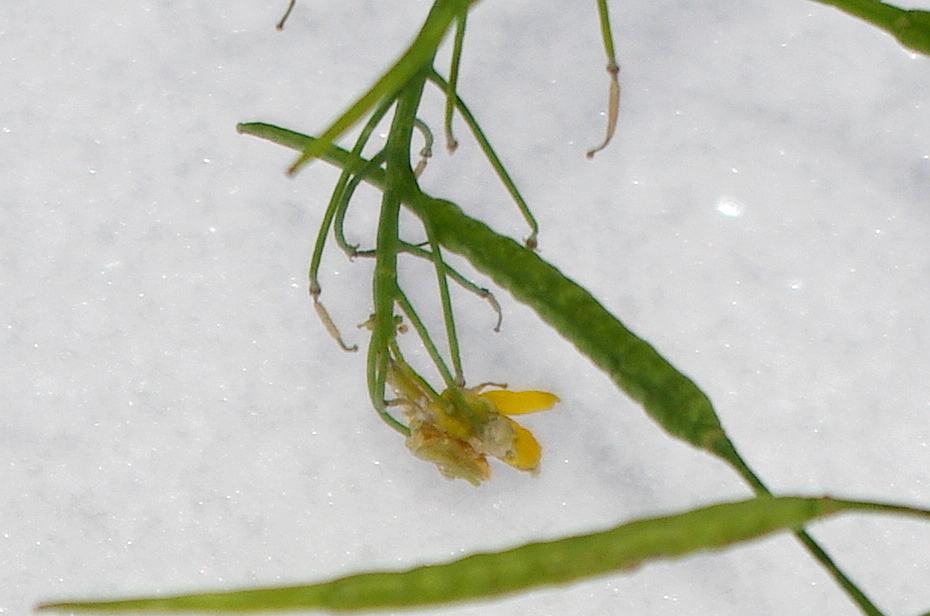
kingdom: Plantae
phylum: Tracheophyta
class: Magnoliopsida
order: Brassicales
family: Brassicaceae
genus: Brassica
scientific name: Brassica rapa
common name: Field mustard
